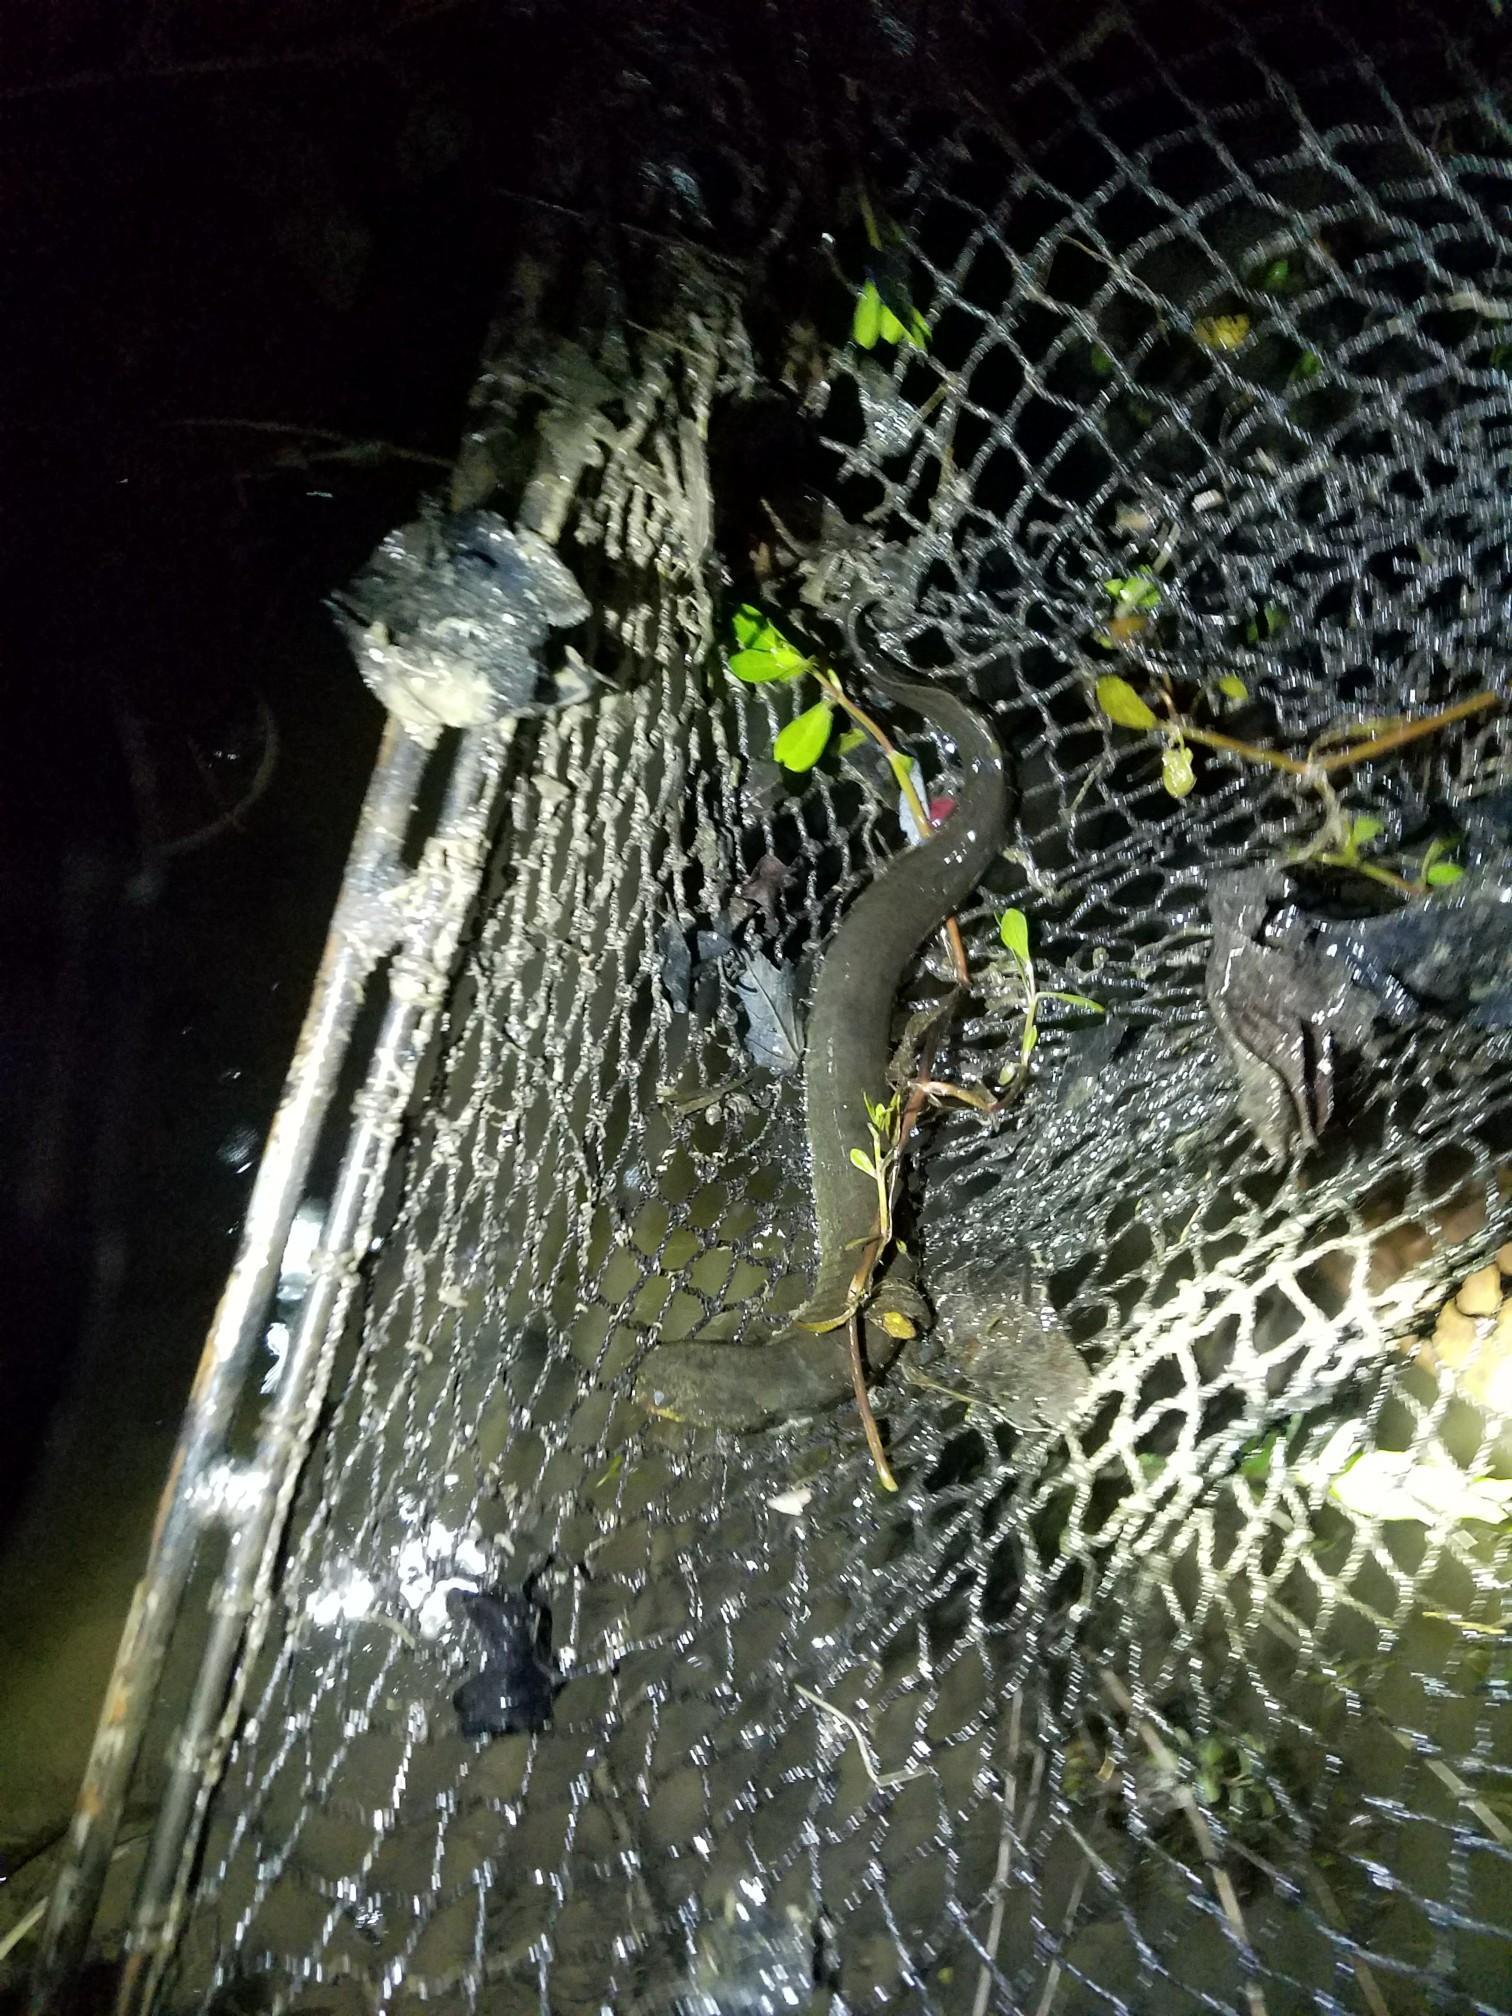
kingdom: Animalia
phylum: Chordata
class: Amphibia
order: Caudata
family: Sirenidae
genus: Siren
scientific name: Siren intermedia
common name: Lesser siren
